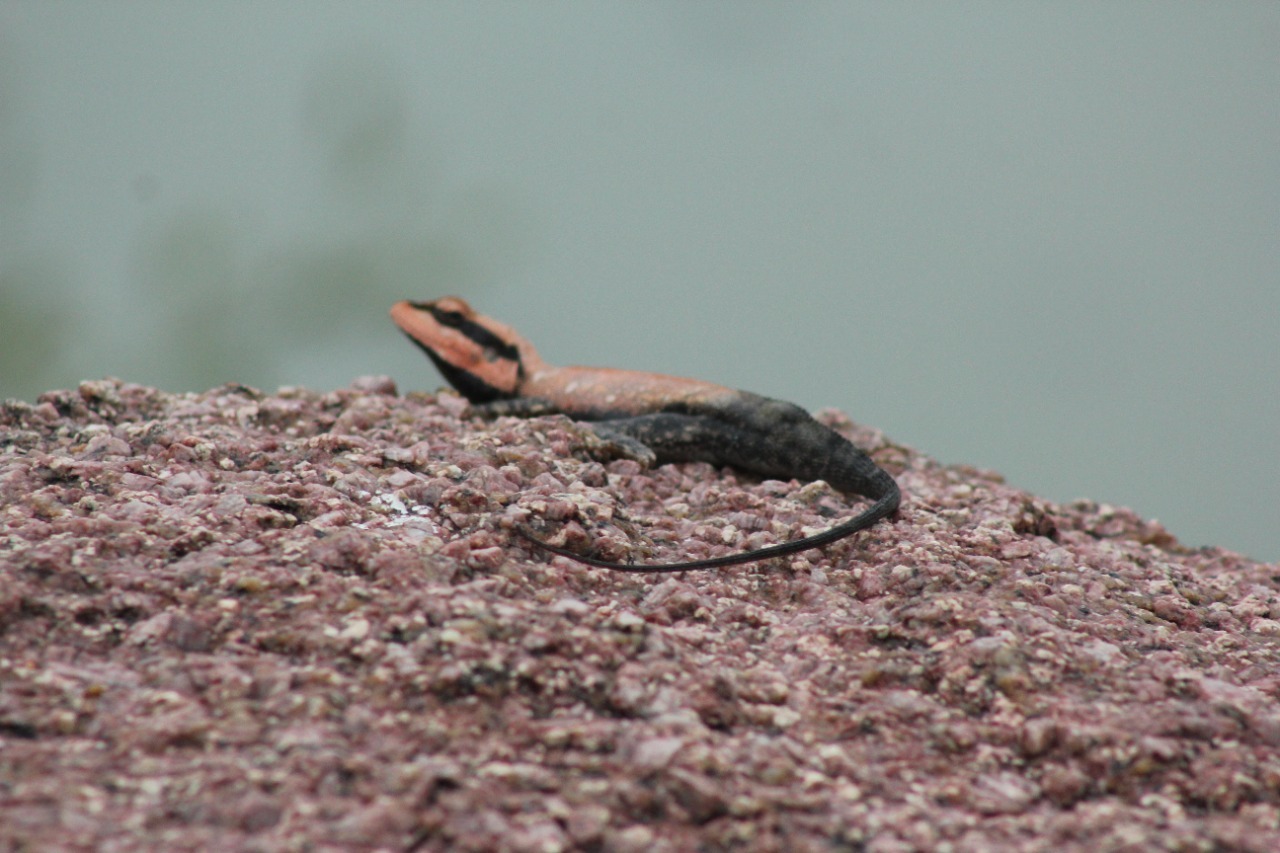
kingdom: Animalia
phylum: Chordata
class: Squamata
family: Agamidae
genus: Psammophilus
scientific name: Psammophilus dorsalis
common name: South indian rock agama
